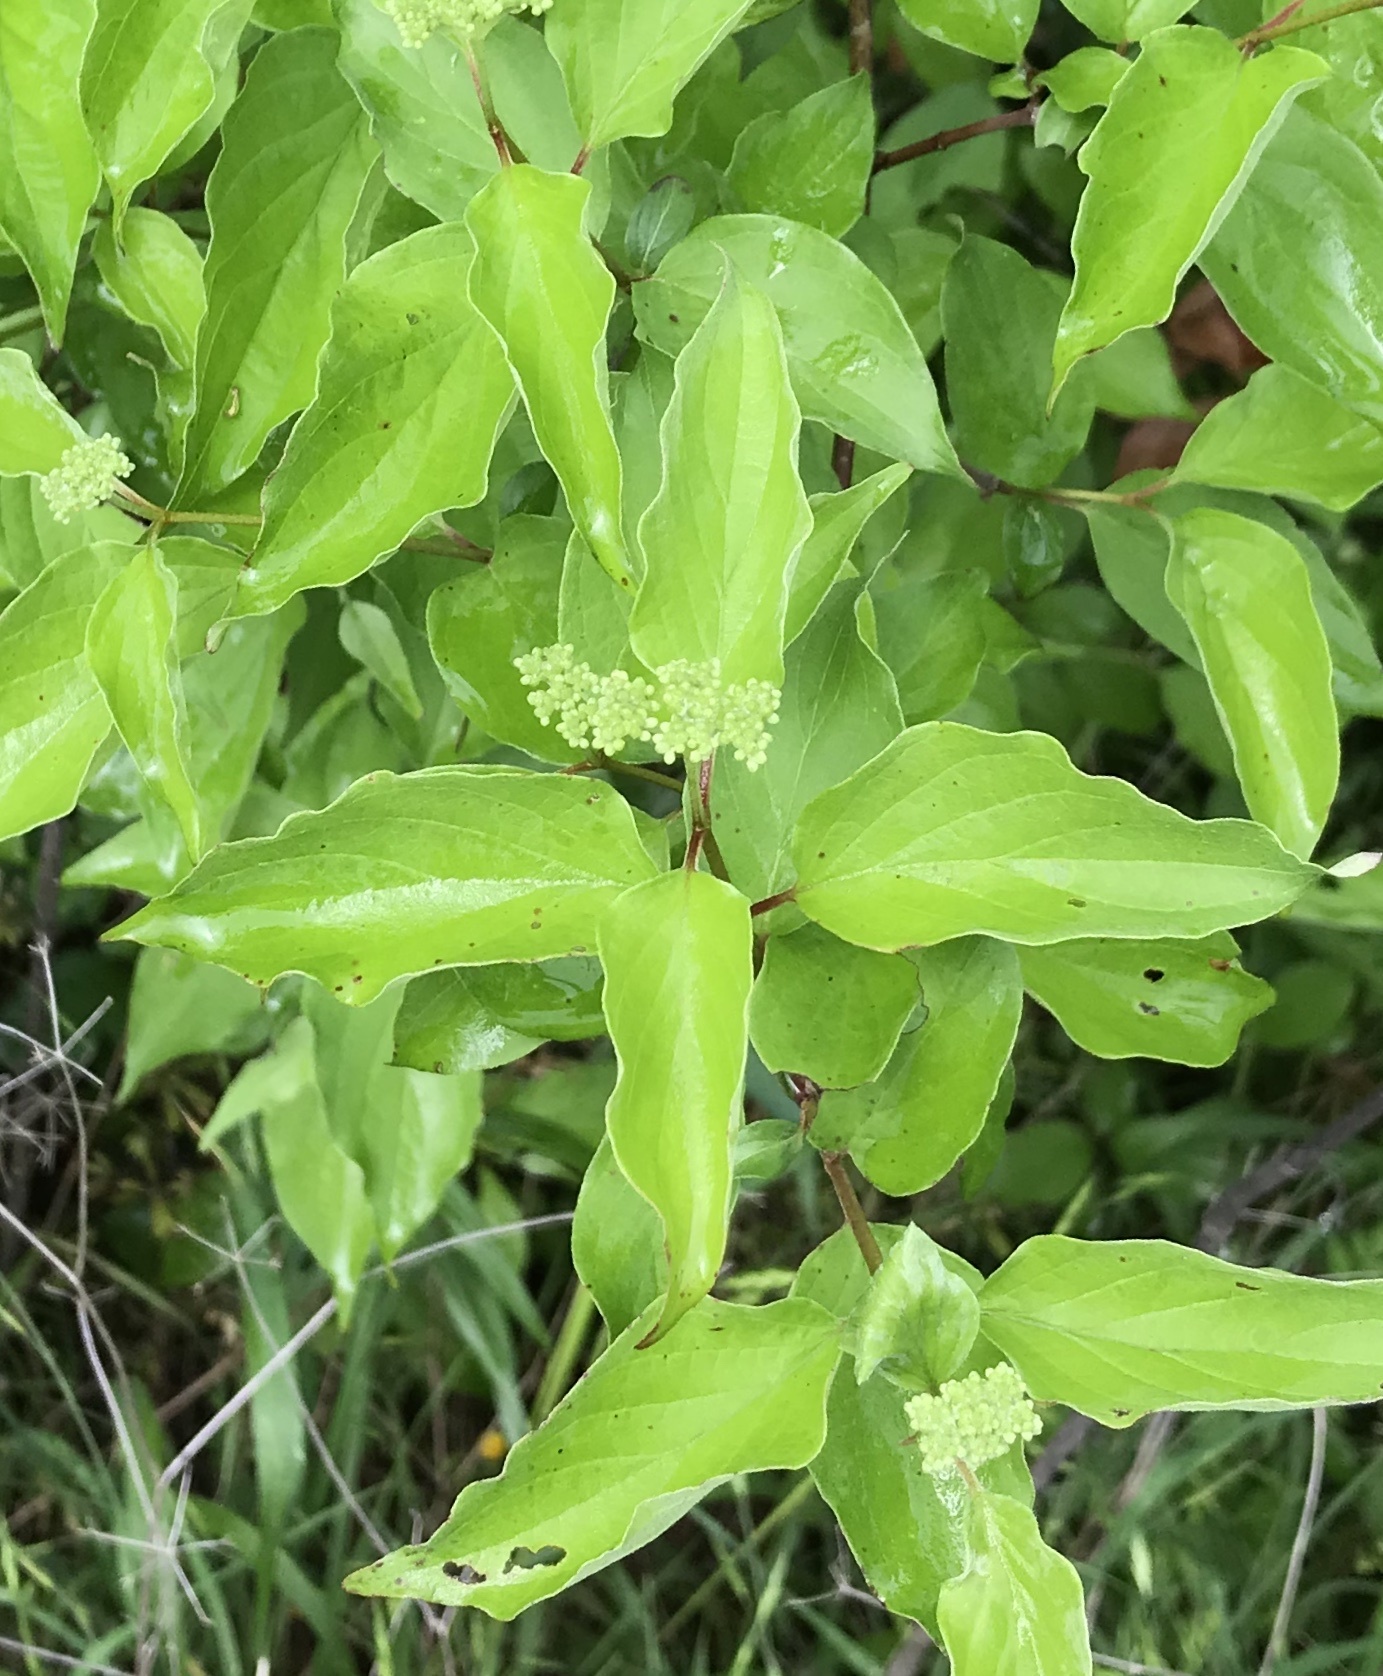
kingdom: Plantae
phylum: Tracheophyta
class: Magnoliopsida
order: Cornales
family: Cornaceae
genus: Cornus
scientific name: Cornus drummondii
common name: Rough-leaf dogwood
